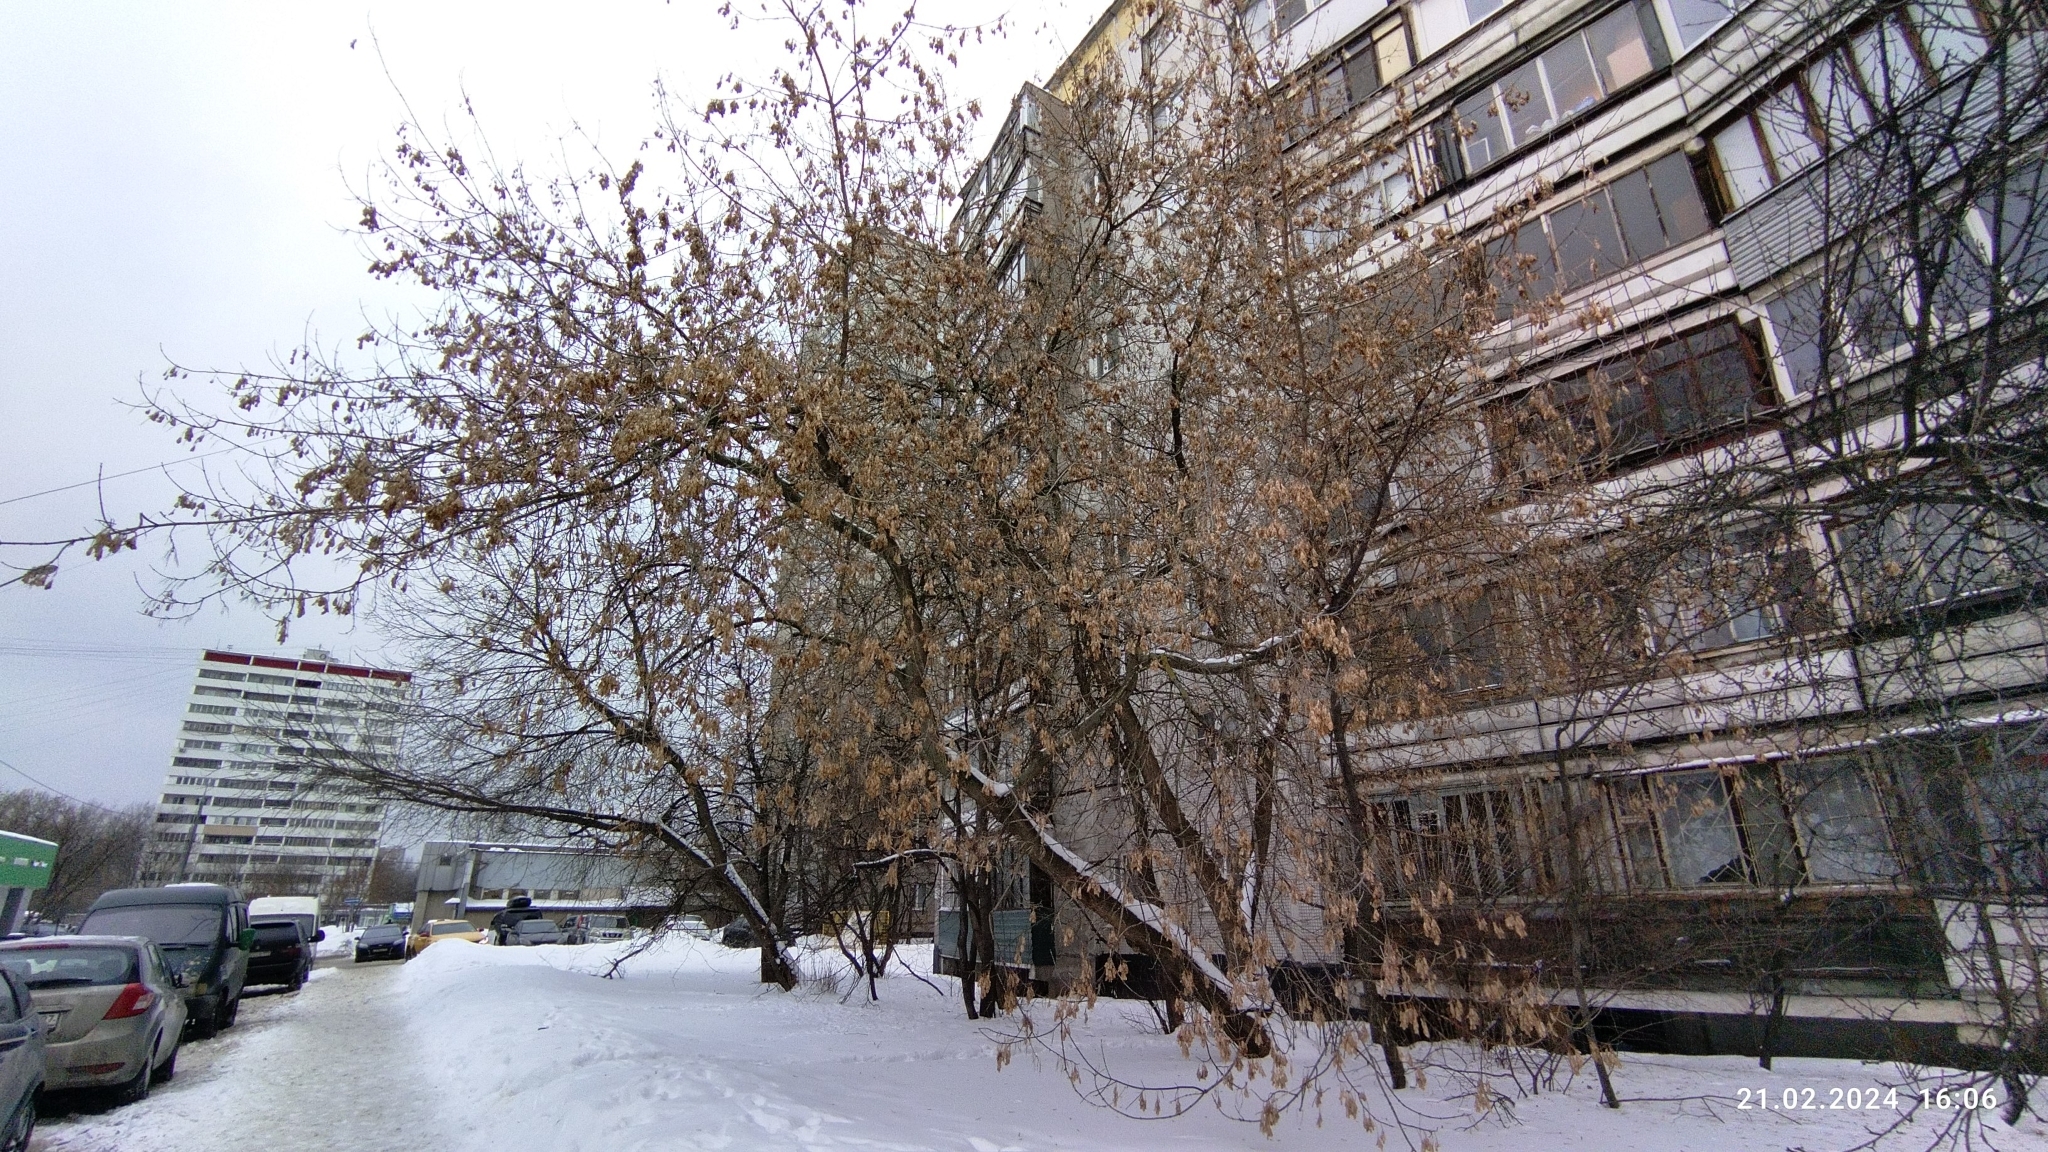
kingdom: Plantae
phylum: Tracheophyta
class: Magnoliopsida
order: Sapindales
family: Sapindaceae
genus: Acer
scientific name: Acer negundo
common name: Ashleaf maple
